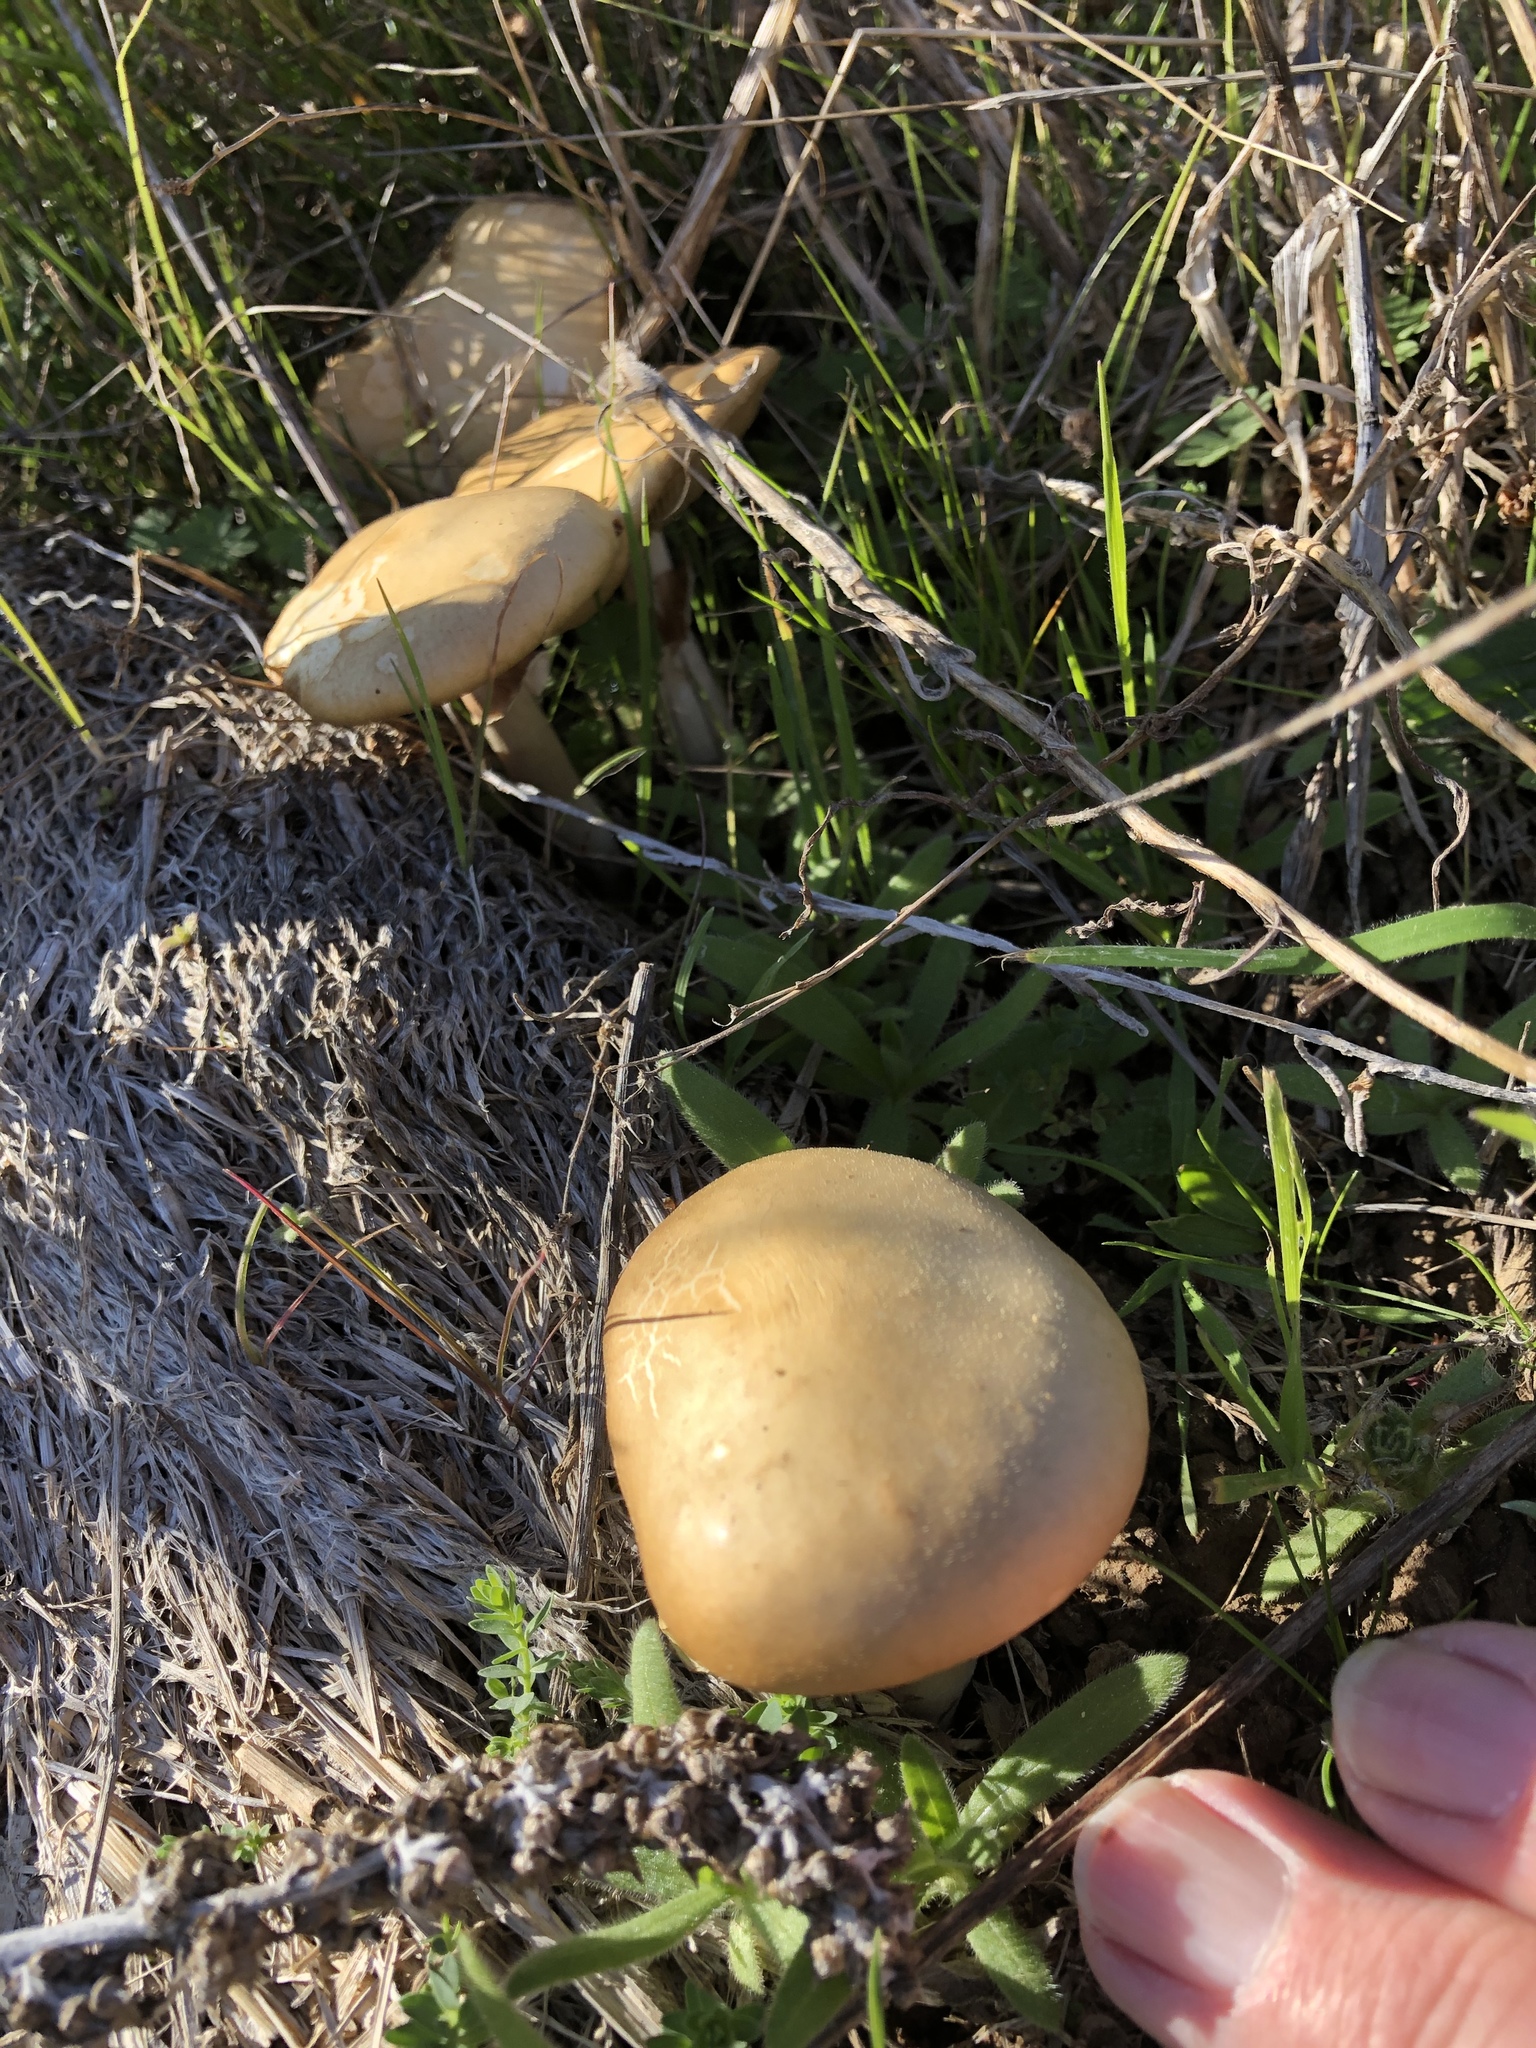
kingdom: Fungi
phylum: Basidiomycota
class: Agaricomycetes
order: Agaricales
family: Strophariaceae
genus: Agrocybe
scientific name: Agrocybe praecox
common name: Spring fieldcap
